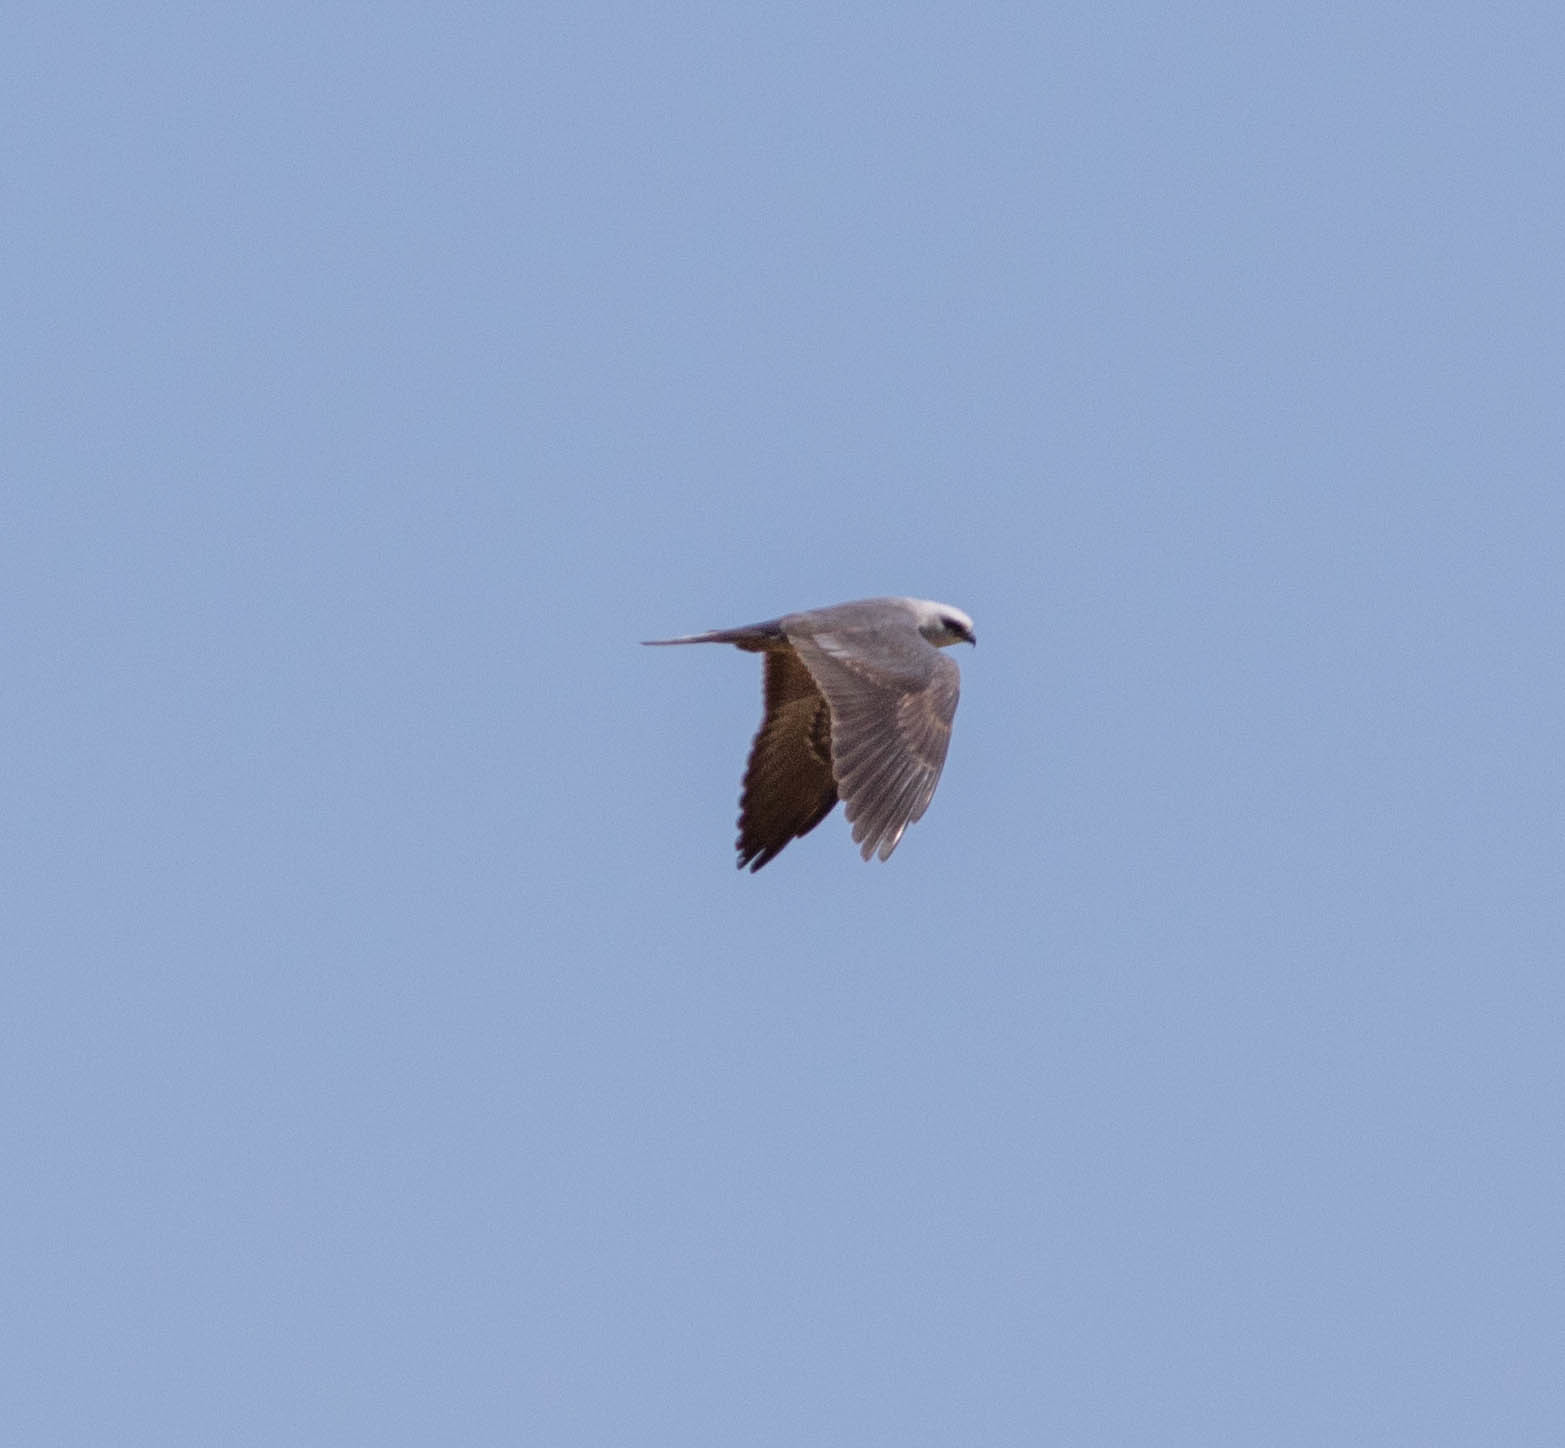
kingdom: Animalia
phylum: Chordata
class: Aves
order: Accipitriformes
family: Accipitridae
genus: Ictinia
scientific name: Ictinia mississippiensis
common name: Mississippi kite
